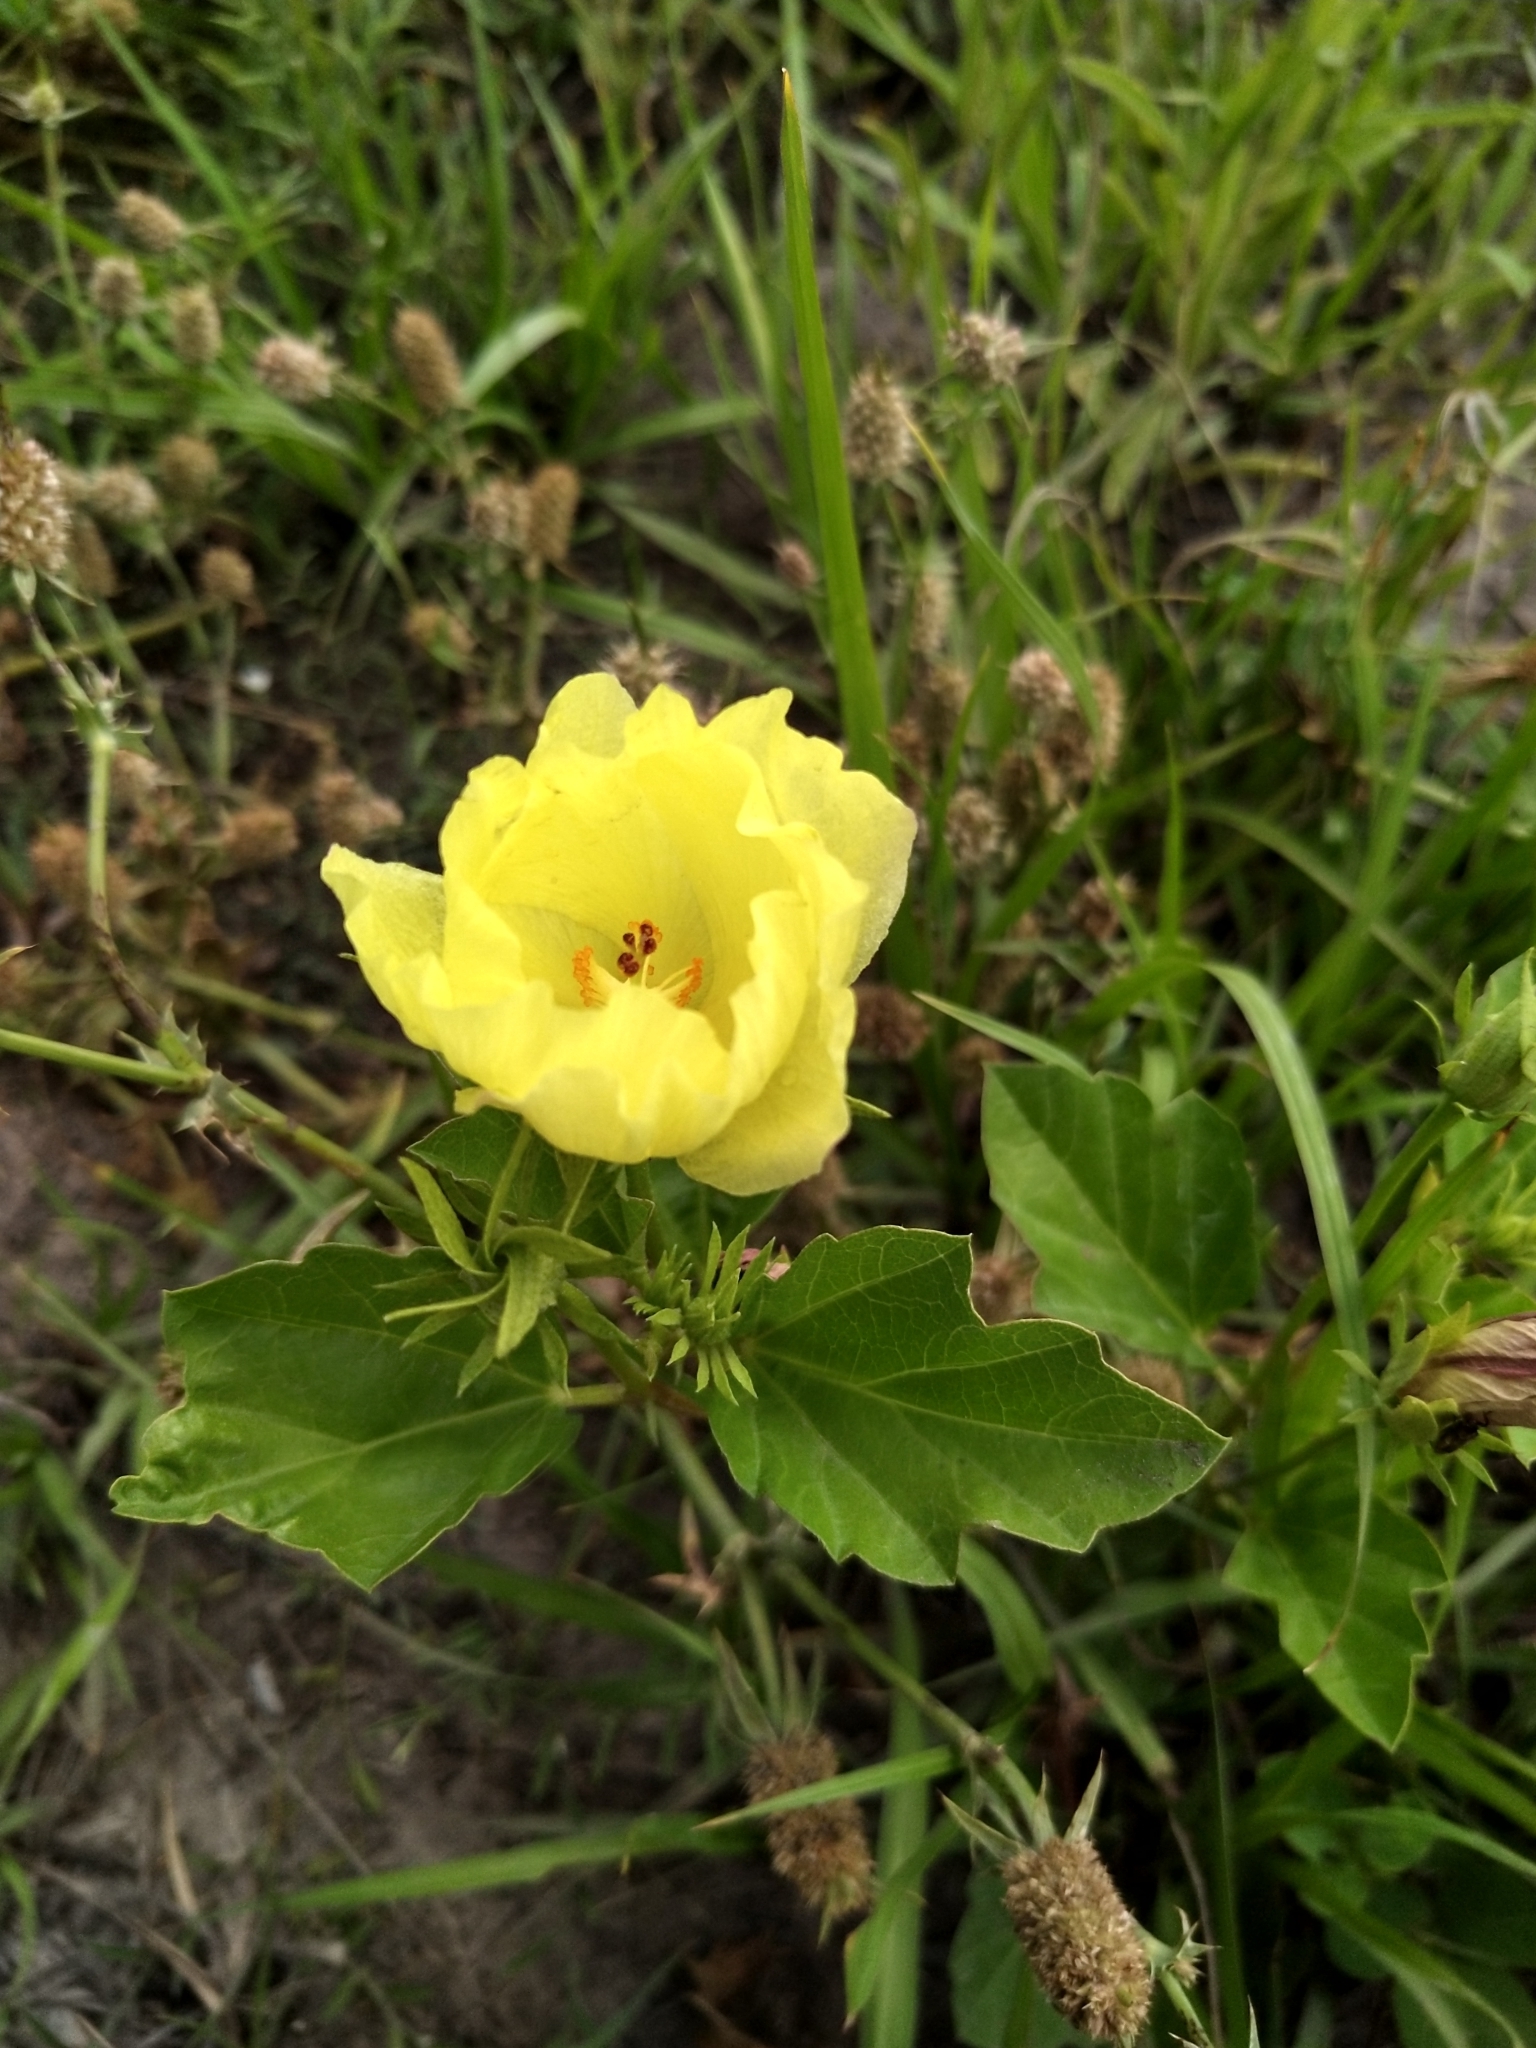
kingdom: Plantae
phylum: Tracheophyta
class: Magnoliopsida
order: Malvales
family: Malvaceae
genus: Cienfuegosia
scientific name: Cienfuegosia drummondii
